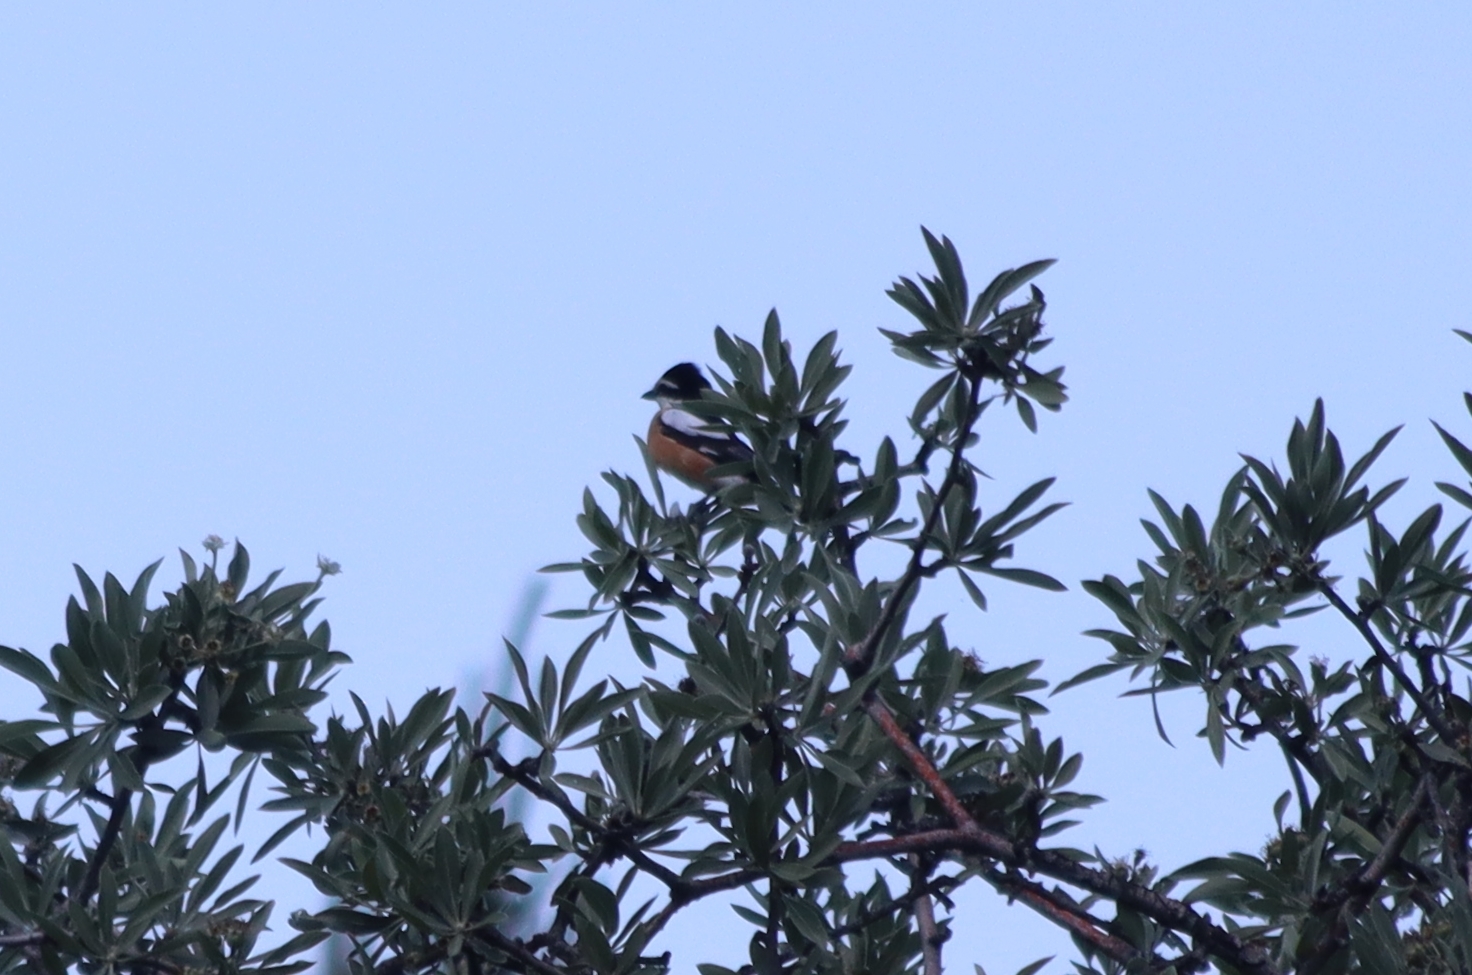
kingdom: Animalia
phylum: Chordata
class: Aves
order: Passeriformes
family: Laniidae
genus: Lanius
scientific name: Lanius nubicus
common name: Masked shrike
